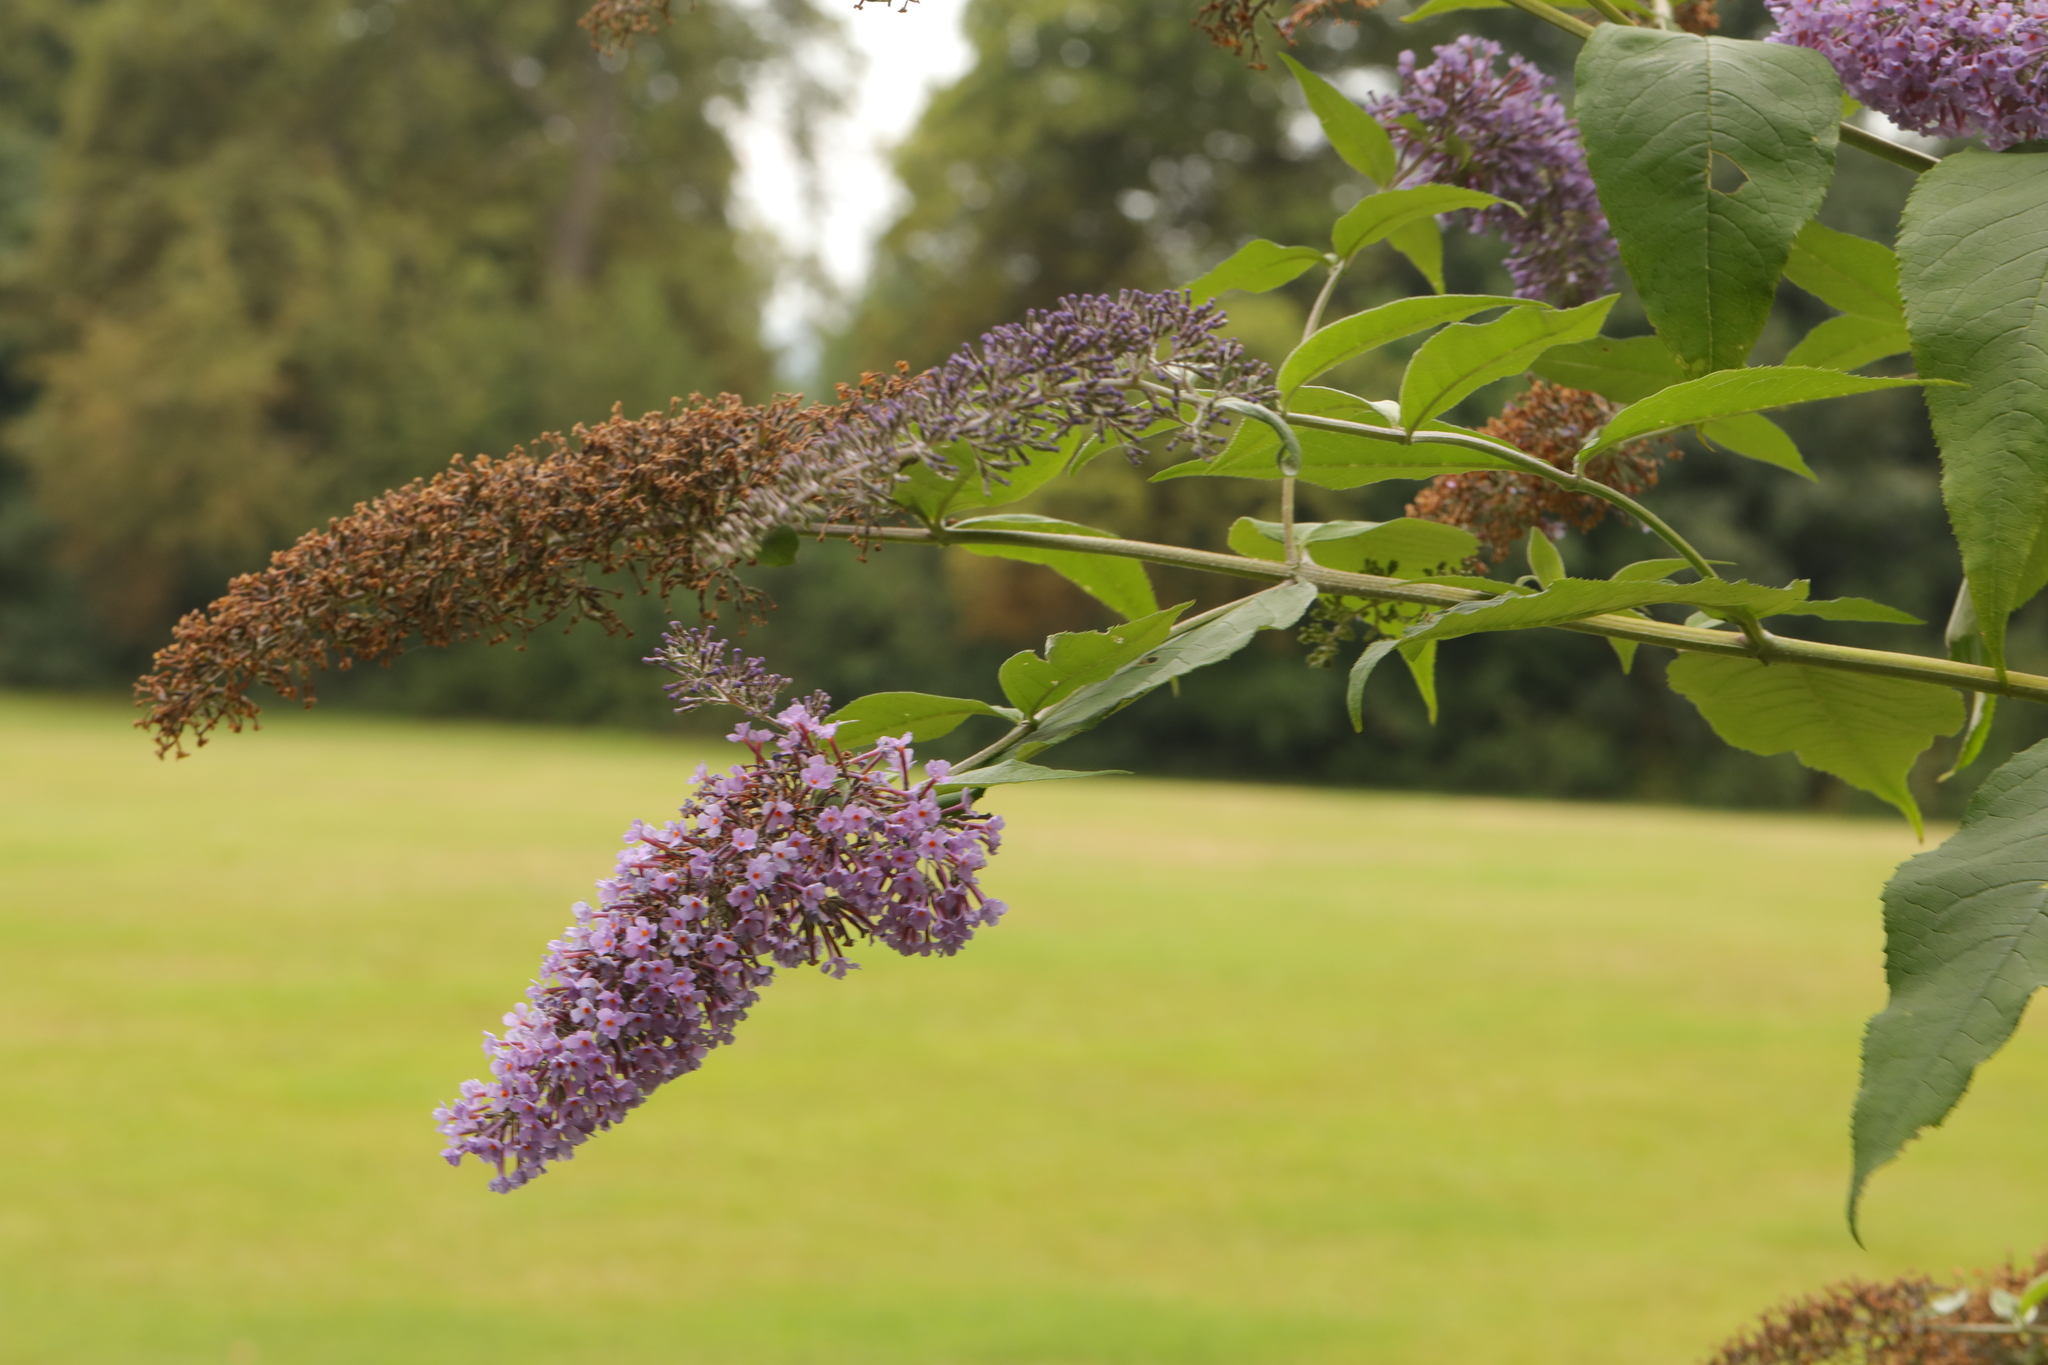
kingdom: Plantae
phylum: Tracheophyta
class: Magnoliopsida
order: Lamiales
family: Scrophulariaceae
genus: Buddleja
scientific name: Buddleja davidii
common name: Butterfly-bush
